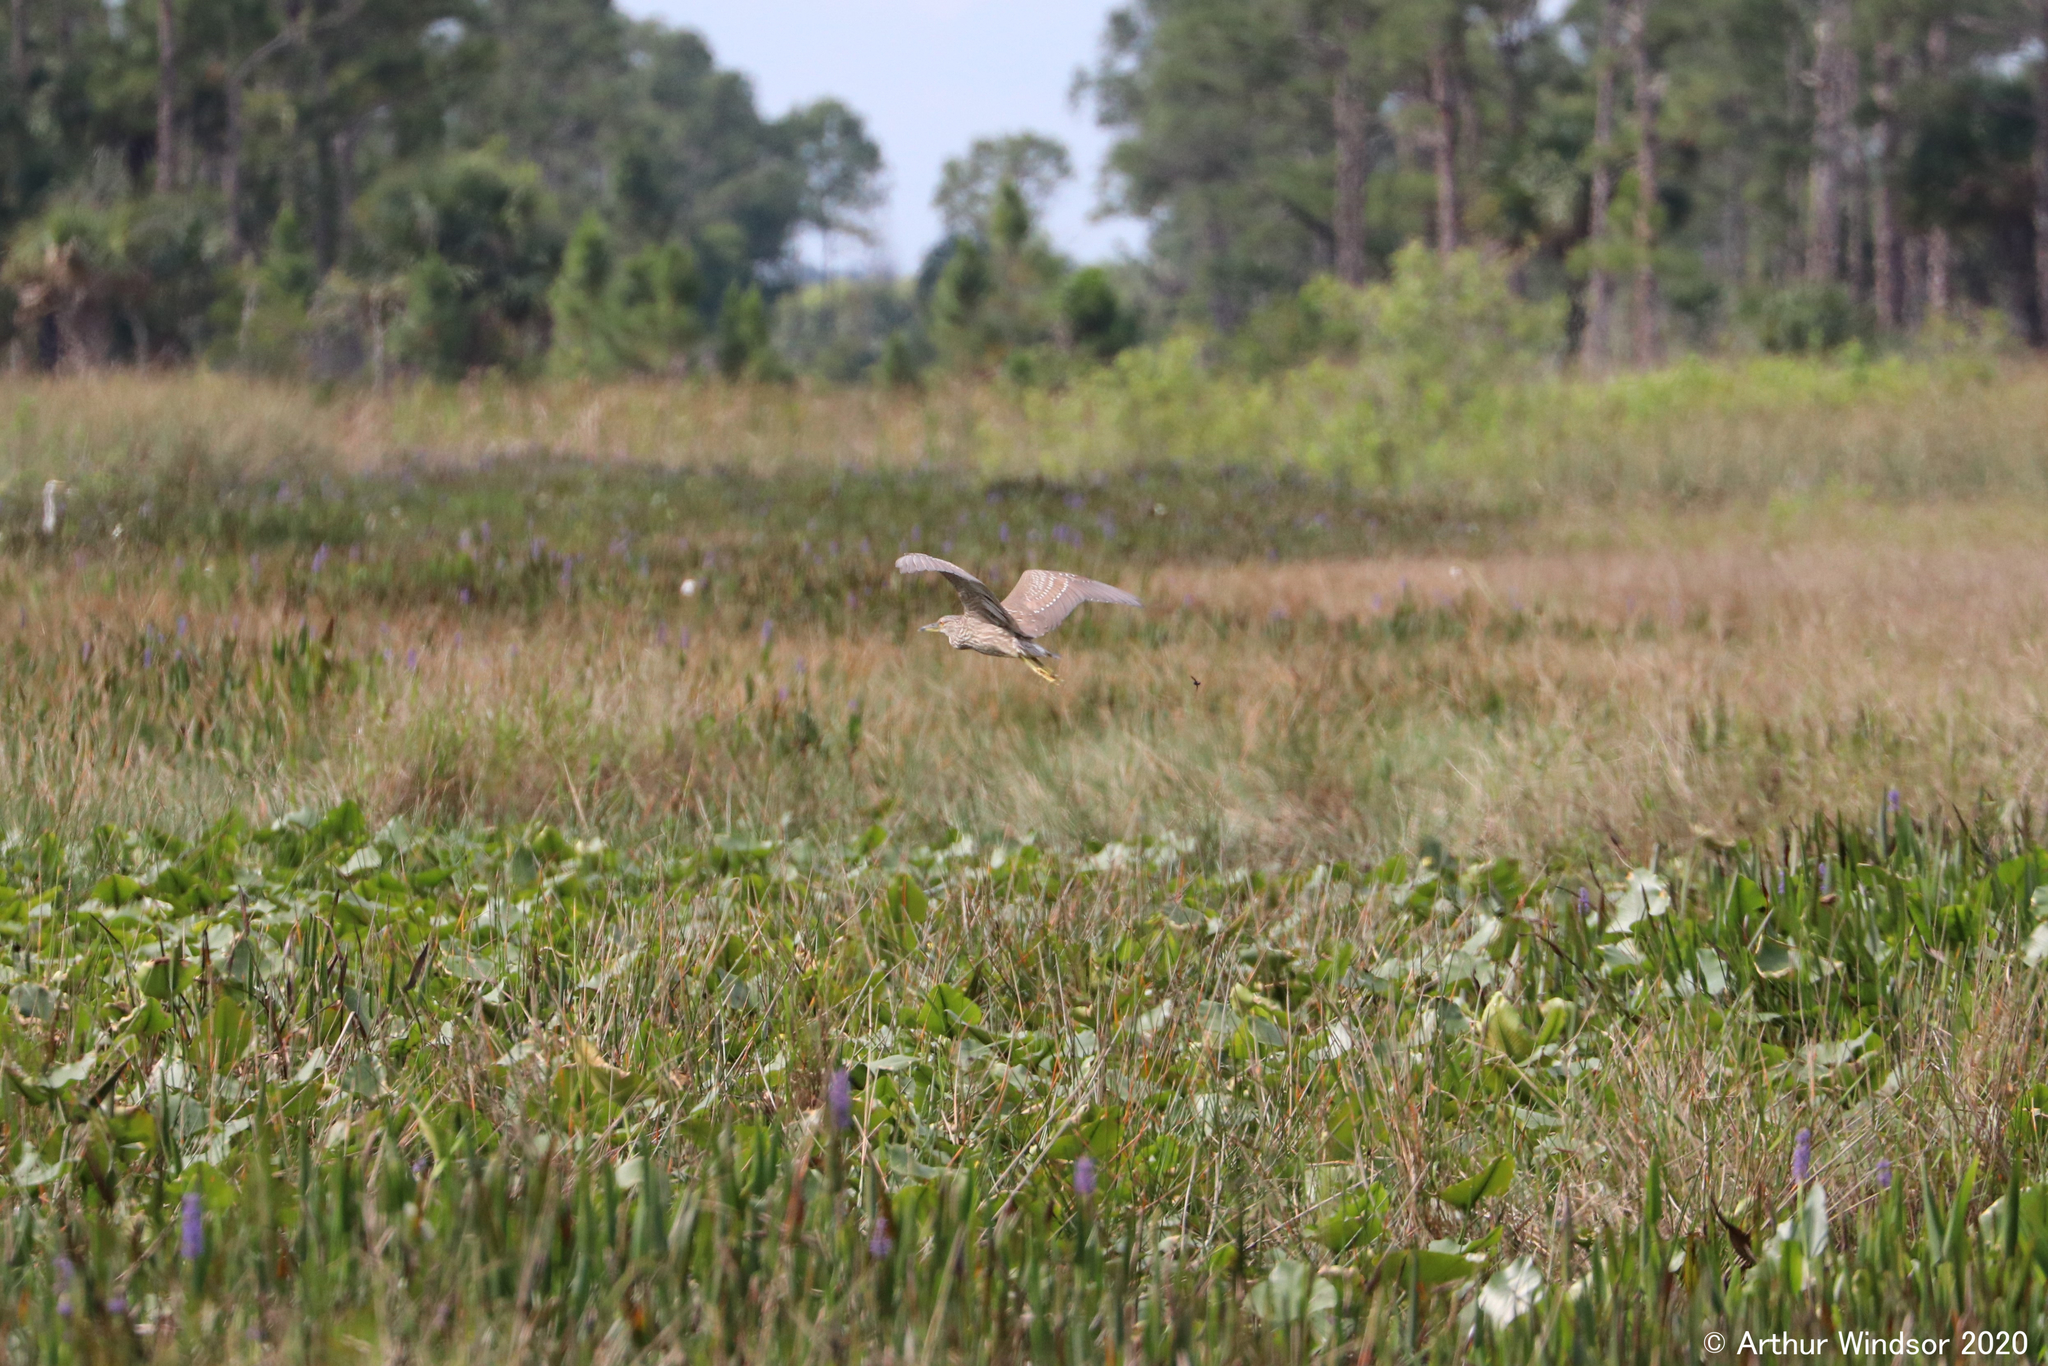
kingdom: Animalia
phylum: Chordata
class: Aves
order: Pelecaniformes
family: Ardeidae
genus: Nycticorax
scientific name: Nycticorax nycticorax
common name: Black-crowned night heron
